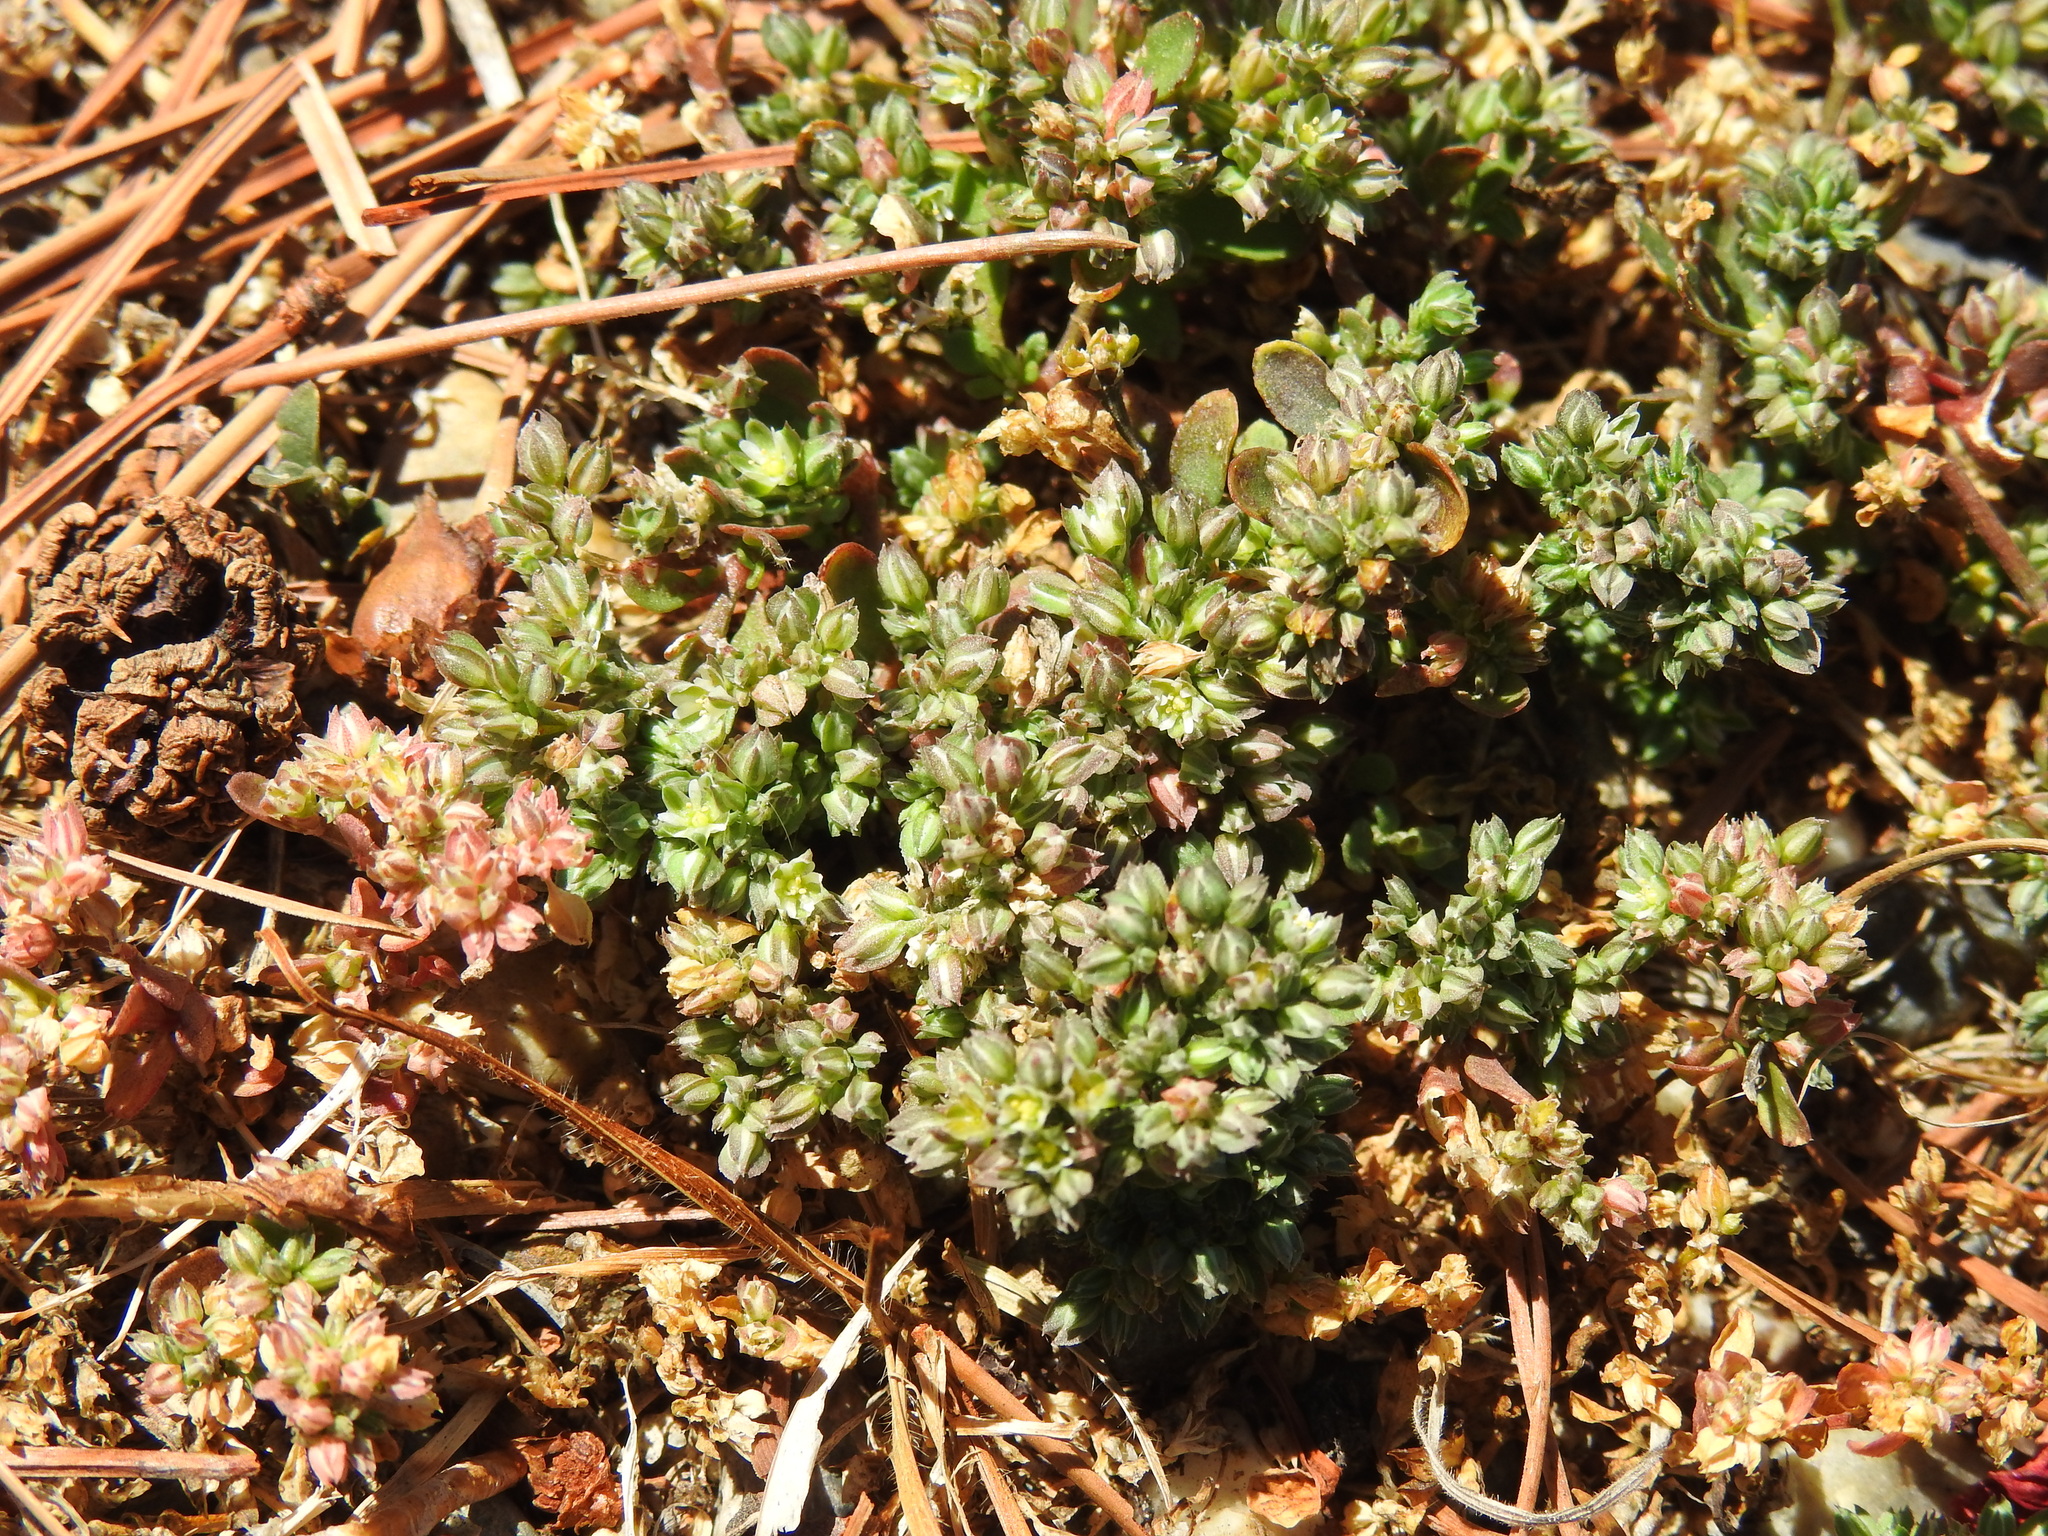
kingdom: Plantae
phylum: Tracheophyta
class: Magnoliopsida
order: Caryophyllales
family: Caryophyllaceae
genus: Polycarpon
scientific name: Polycarpon tetraphyllum
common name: Four-leaved all-seed
